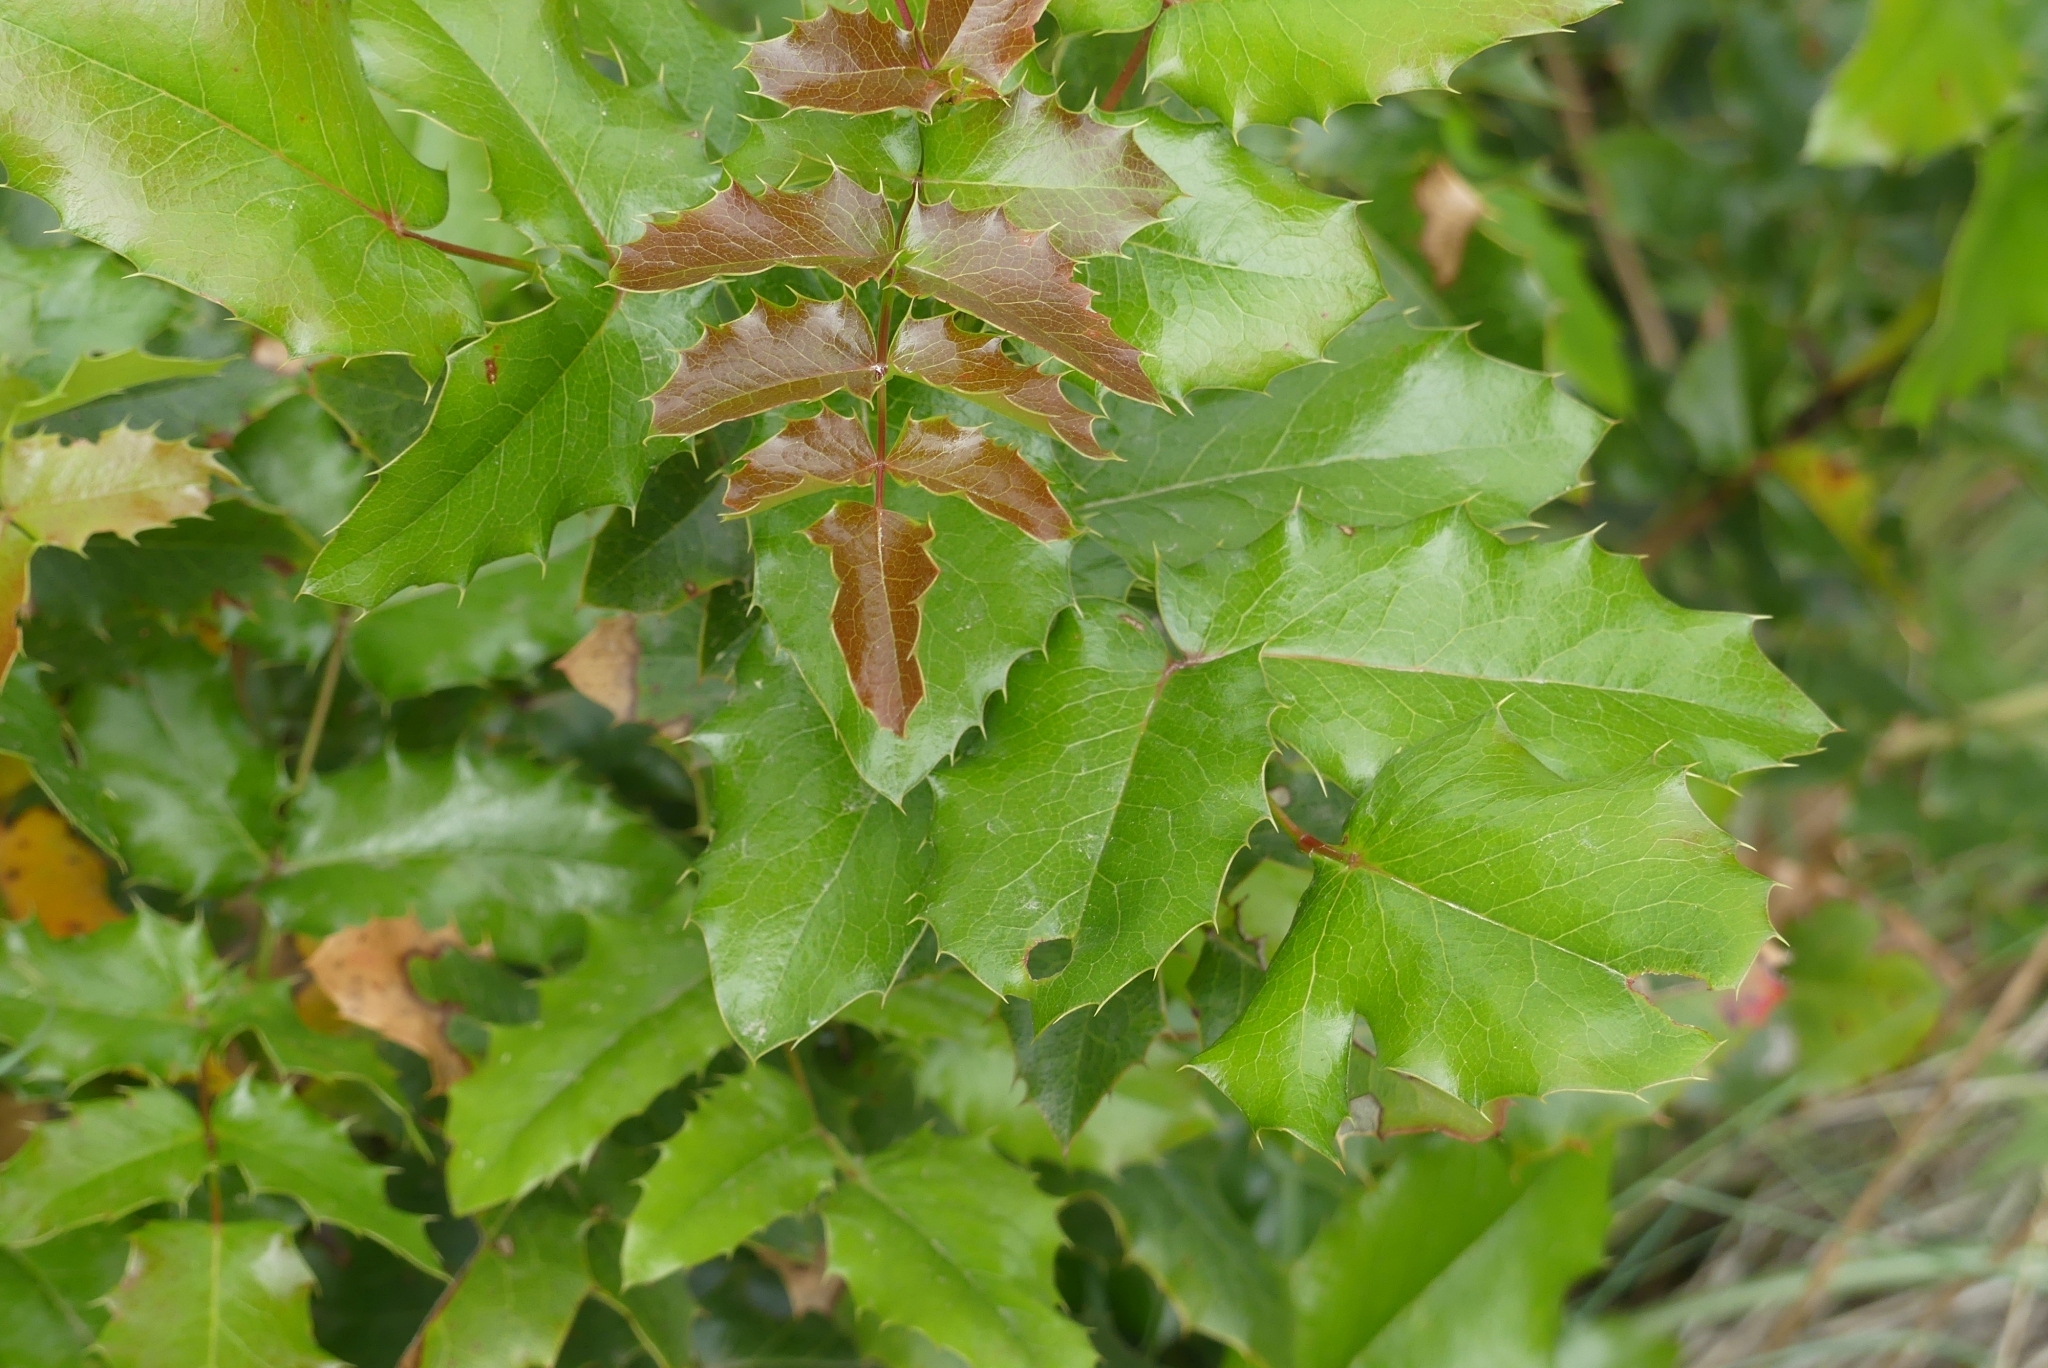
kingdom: Plantae
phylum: Tracheophyta
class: Magnoliopsida
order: Ranunculales
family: Berberidaceae
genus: Mahonia
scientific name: Mahonia aquifolium
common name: Oregon-grape
